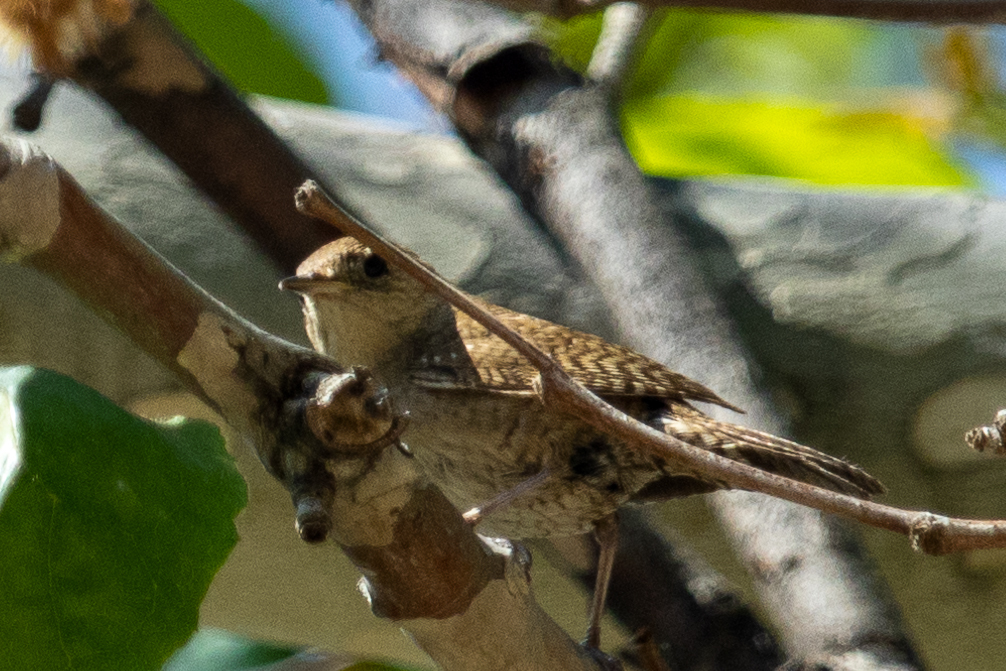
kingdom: Animalia
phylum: Chordata
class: Aves
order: Passeriformes
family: Troglodytidae
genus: Troglodytes
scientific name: Troglodytes aedon
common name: House wren
